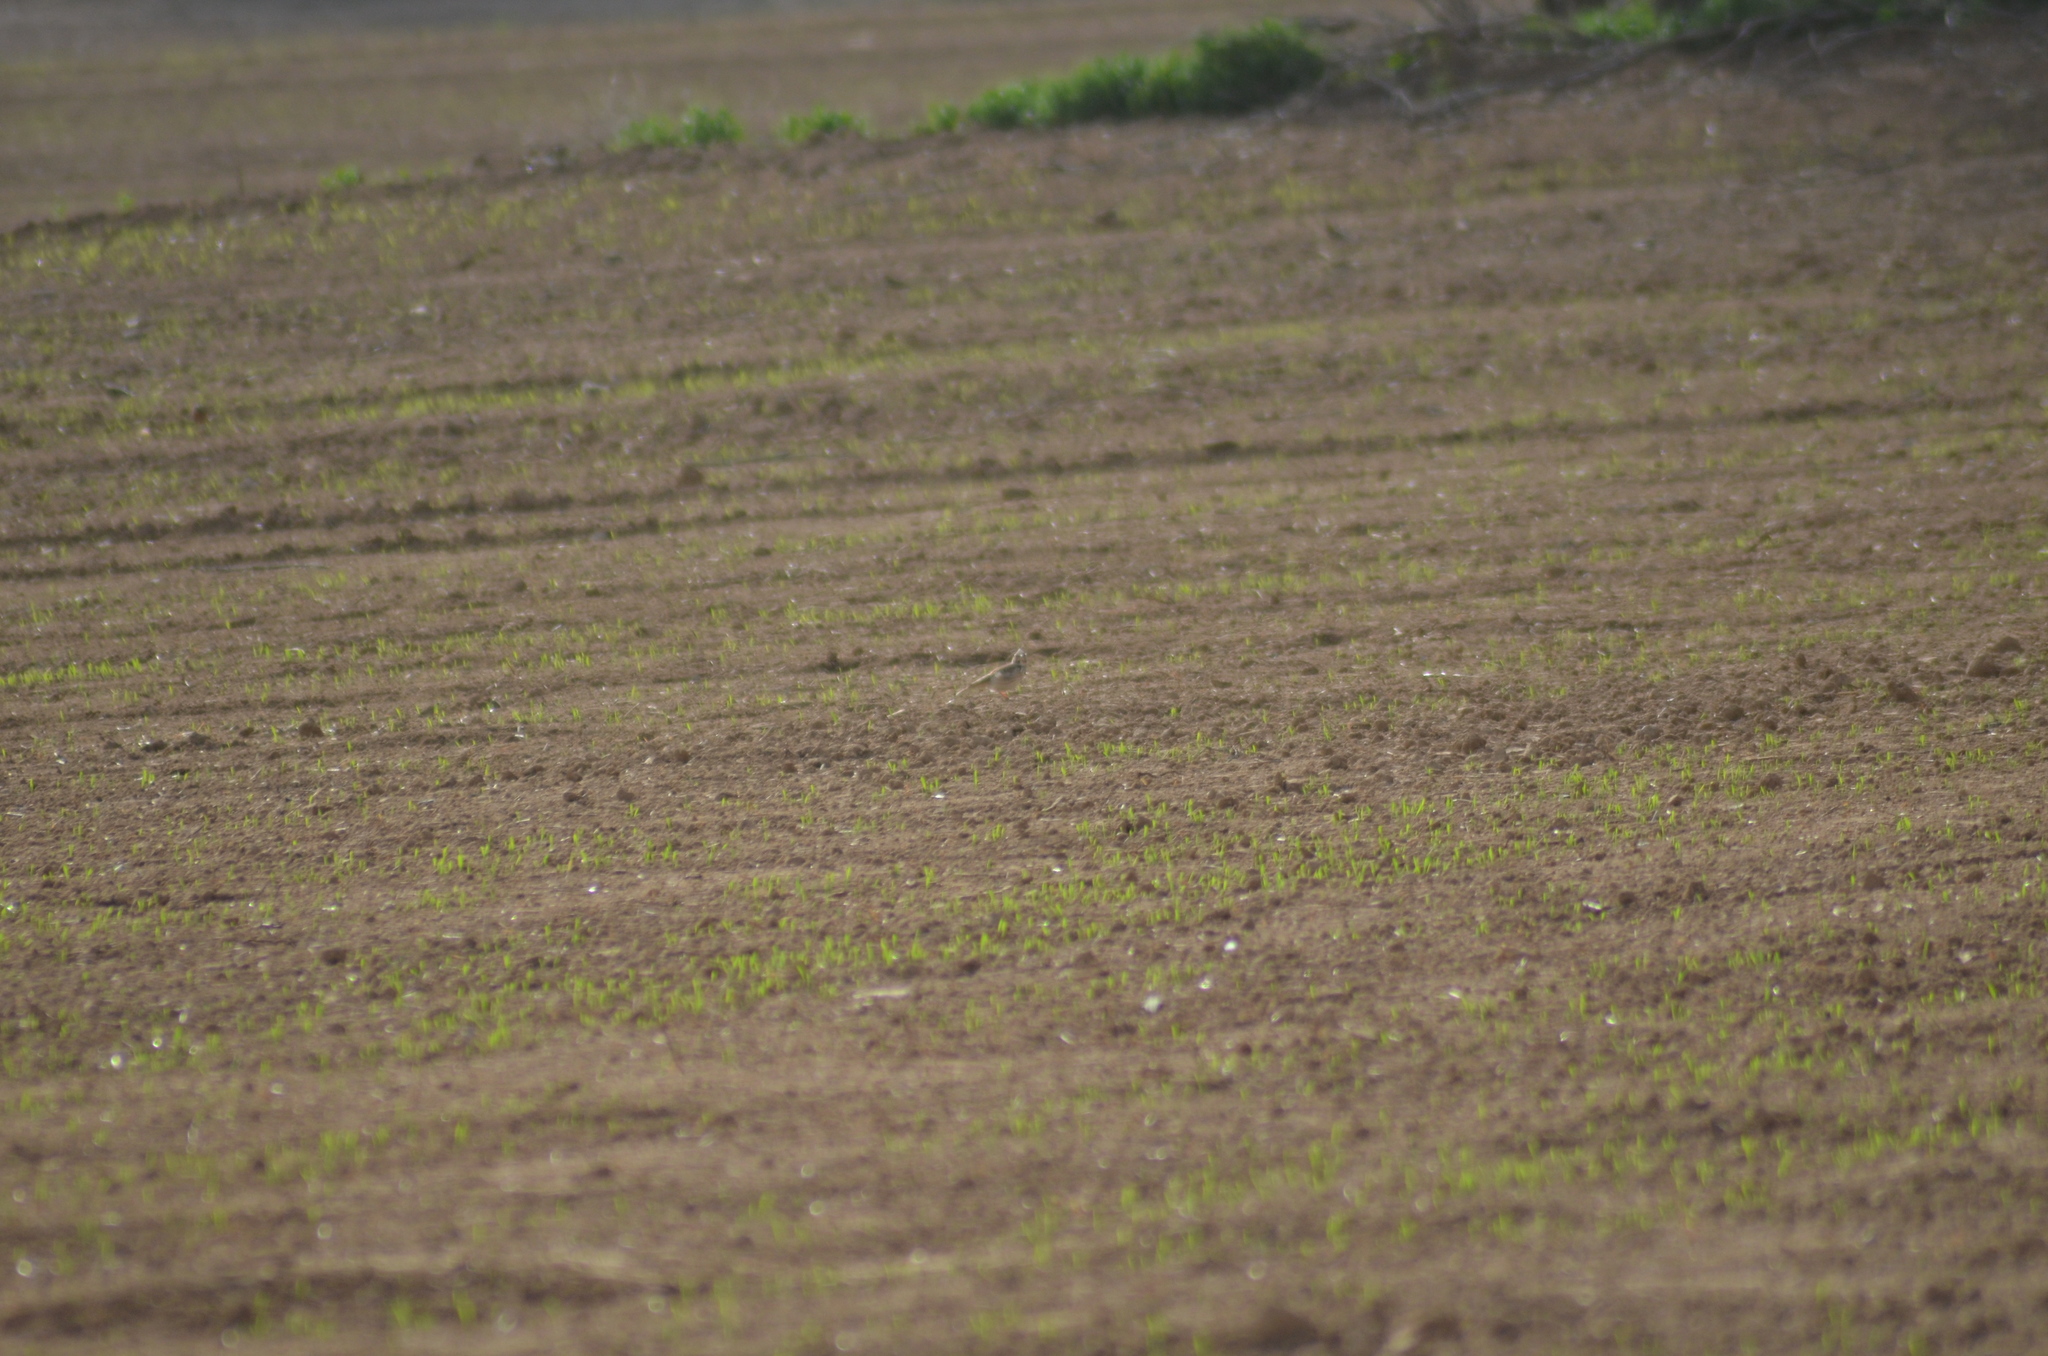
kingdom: Animalia
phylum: Chordata
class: Aves
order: Passeriformes
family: Alaudidae
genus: Galerida
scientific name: Galerida cristata
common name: Crested lark
